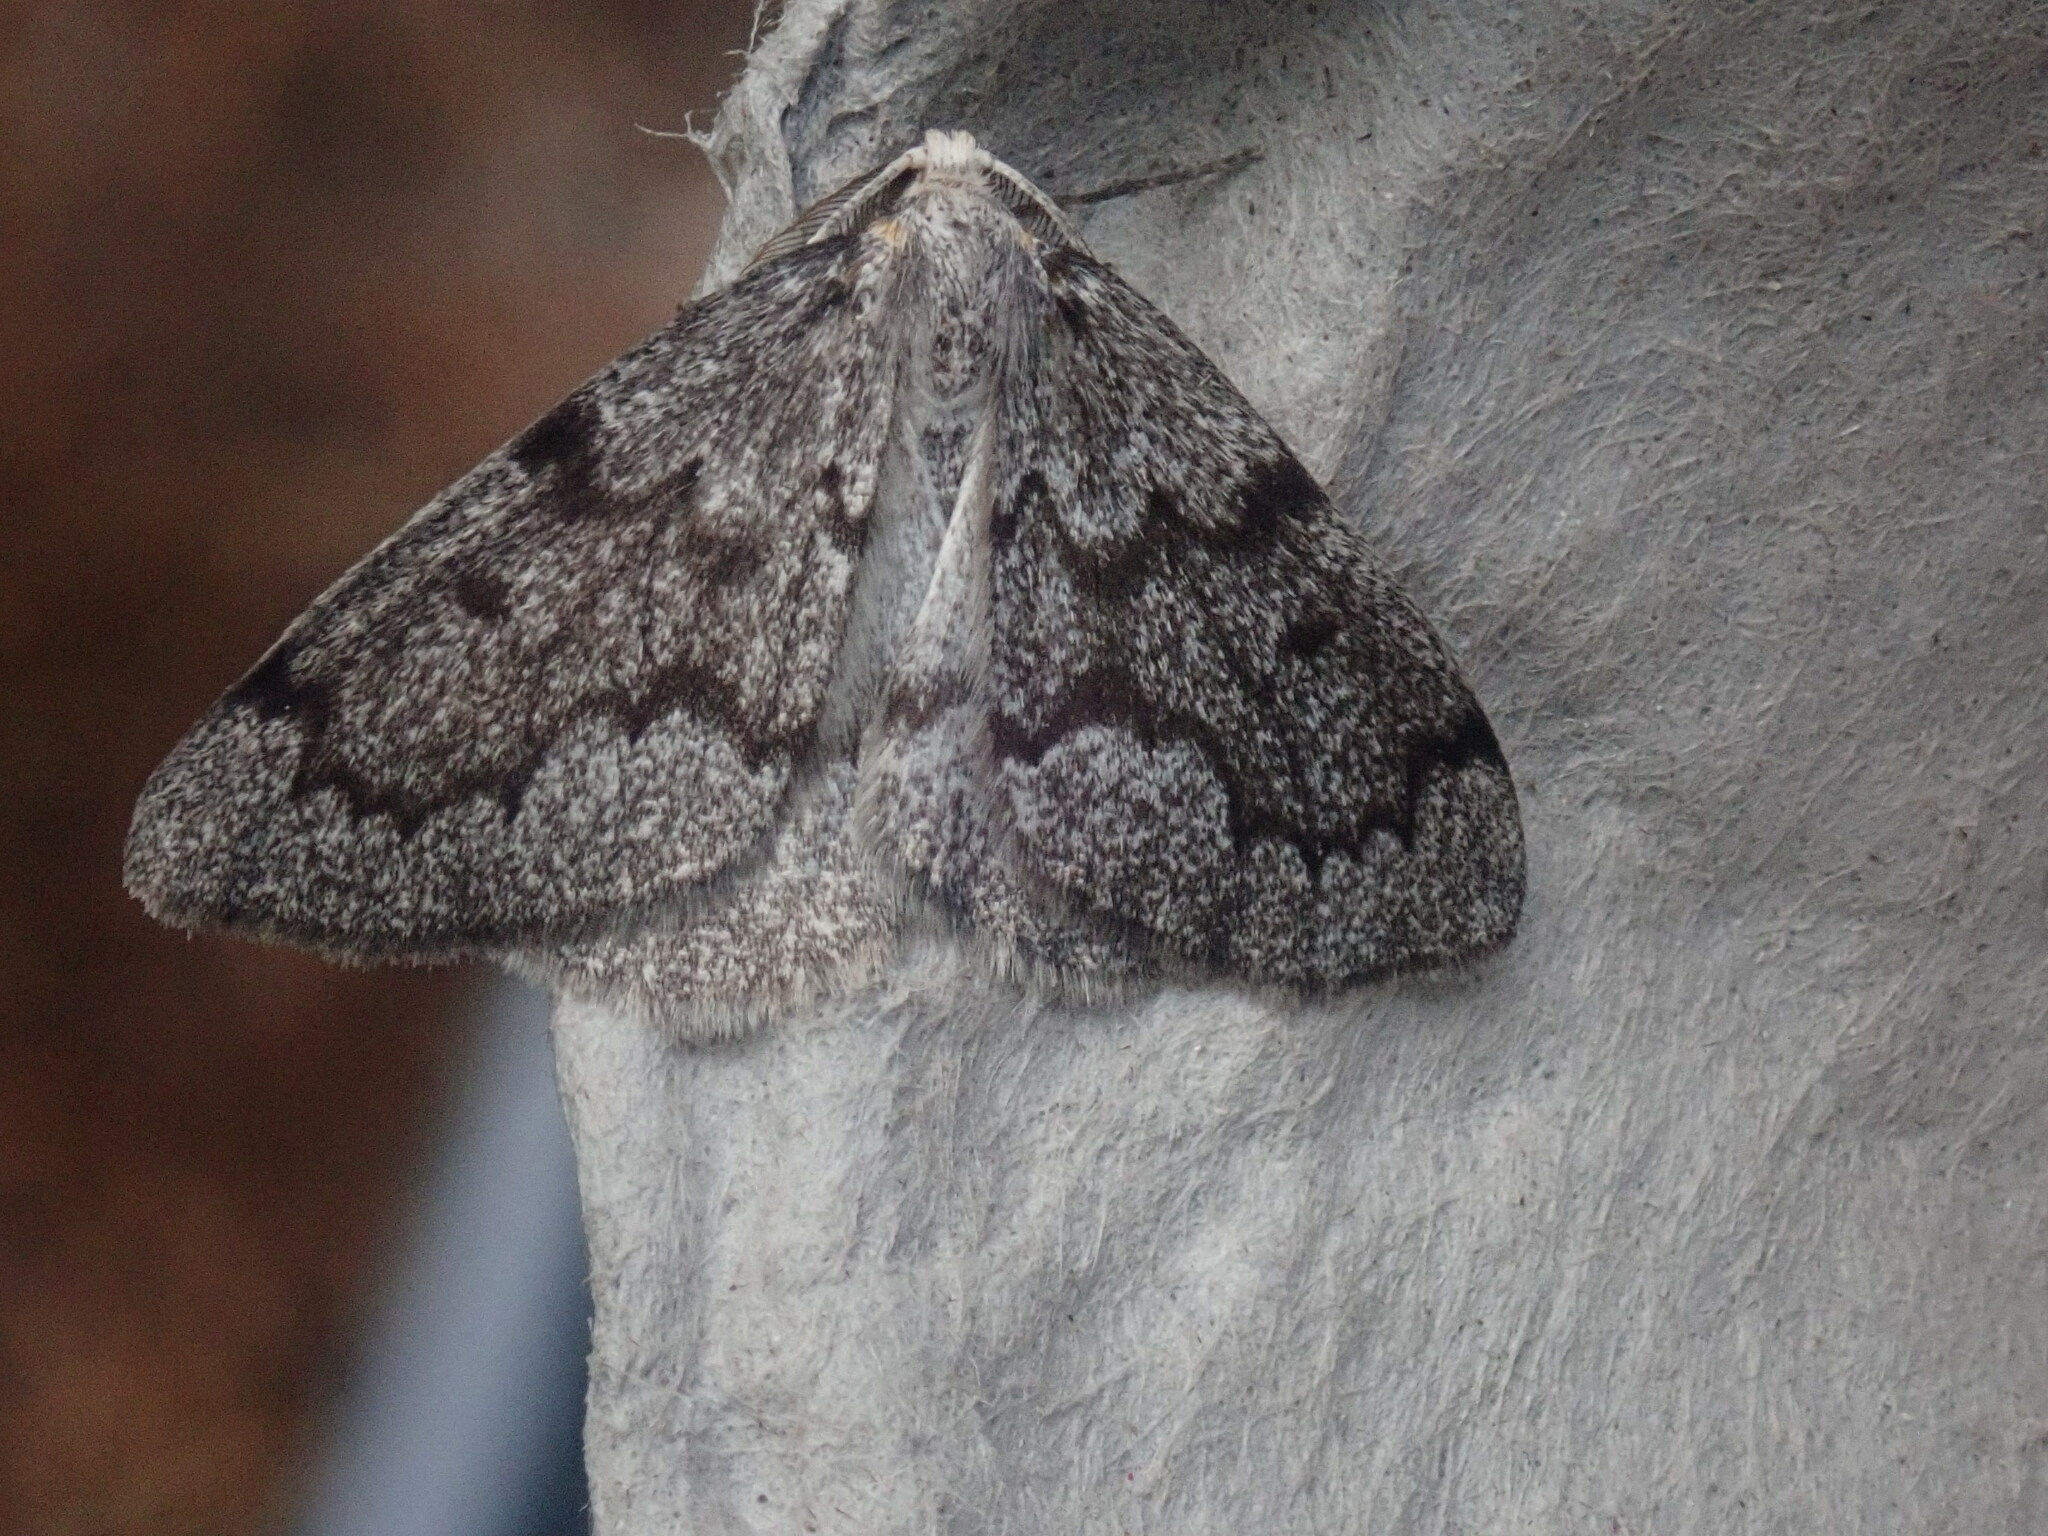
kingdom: Animalia
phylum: Arthropoda
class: Insecta
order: Lepidoptera
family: Geometridae
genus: Nepytia
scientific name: Nepytia canosaria
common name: False hemlock looper
